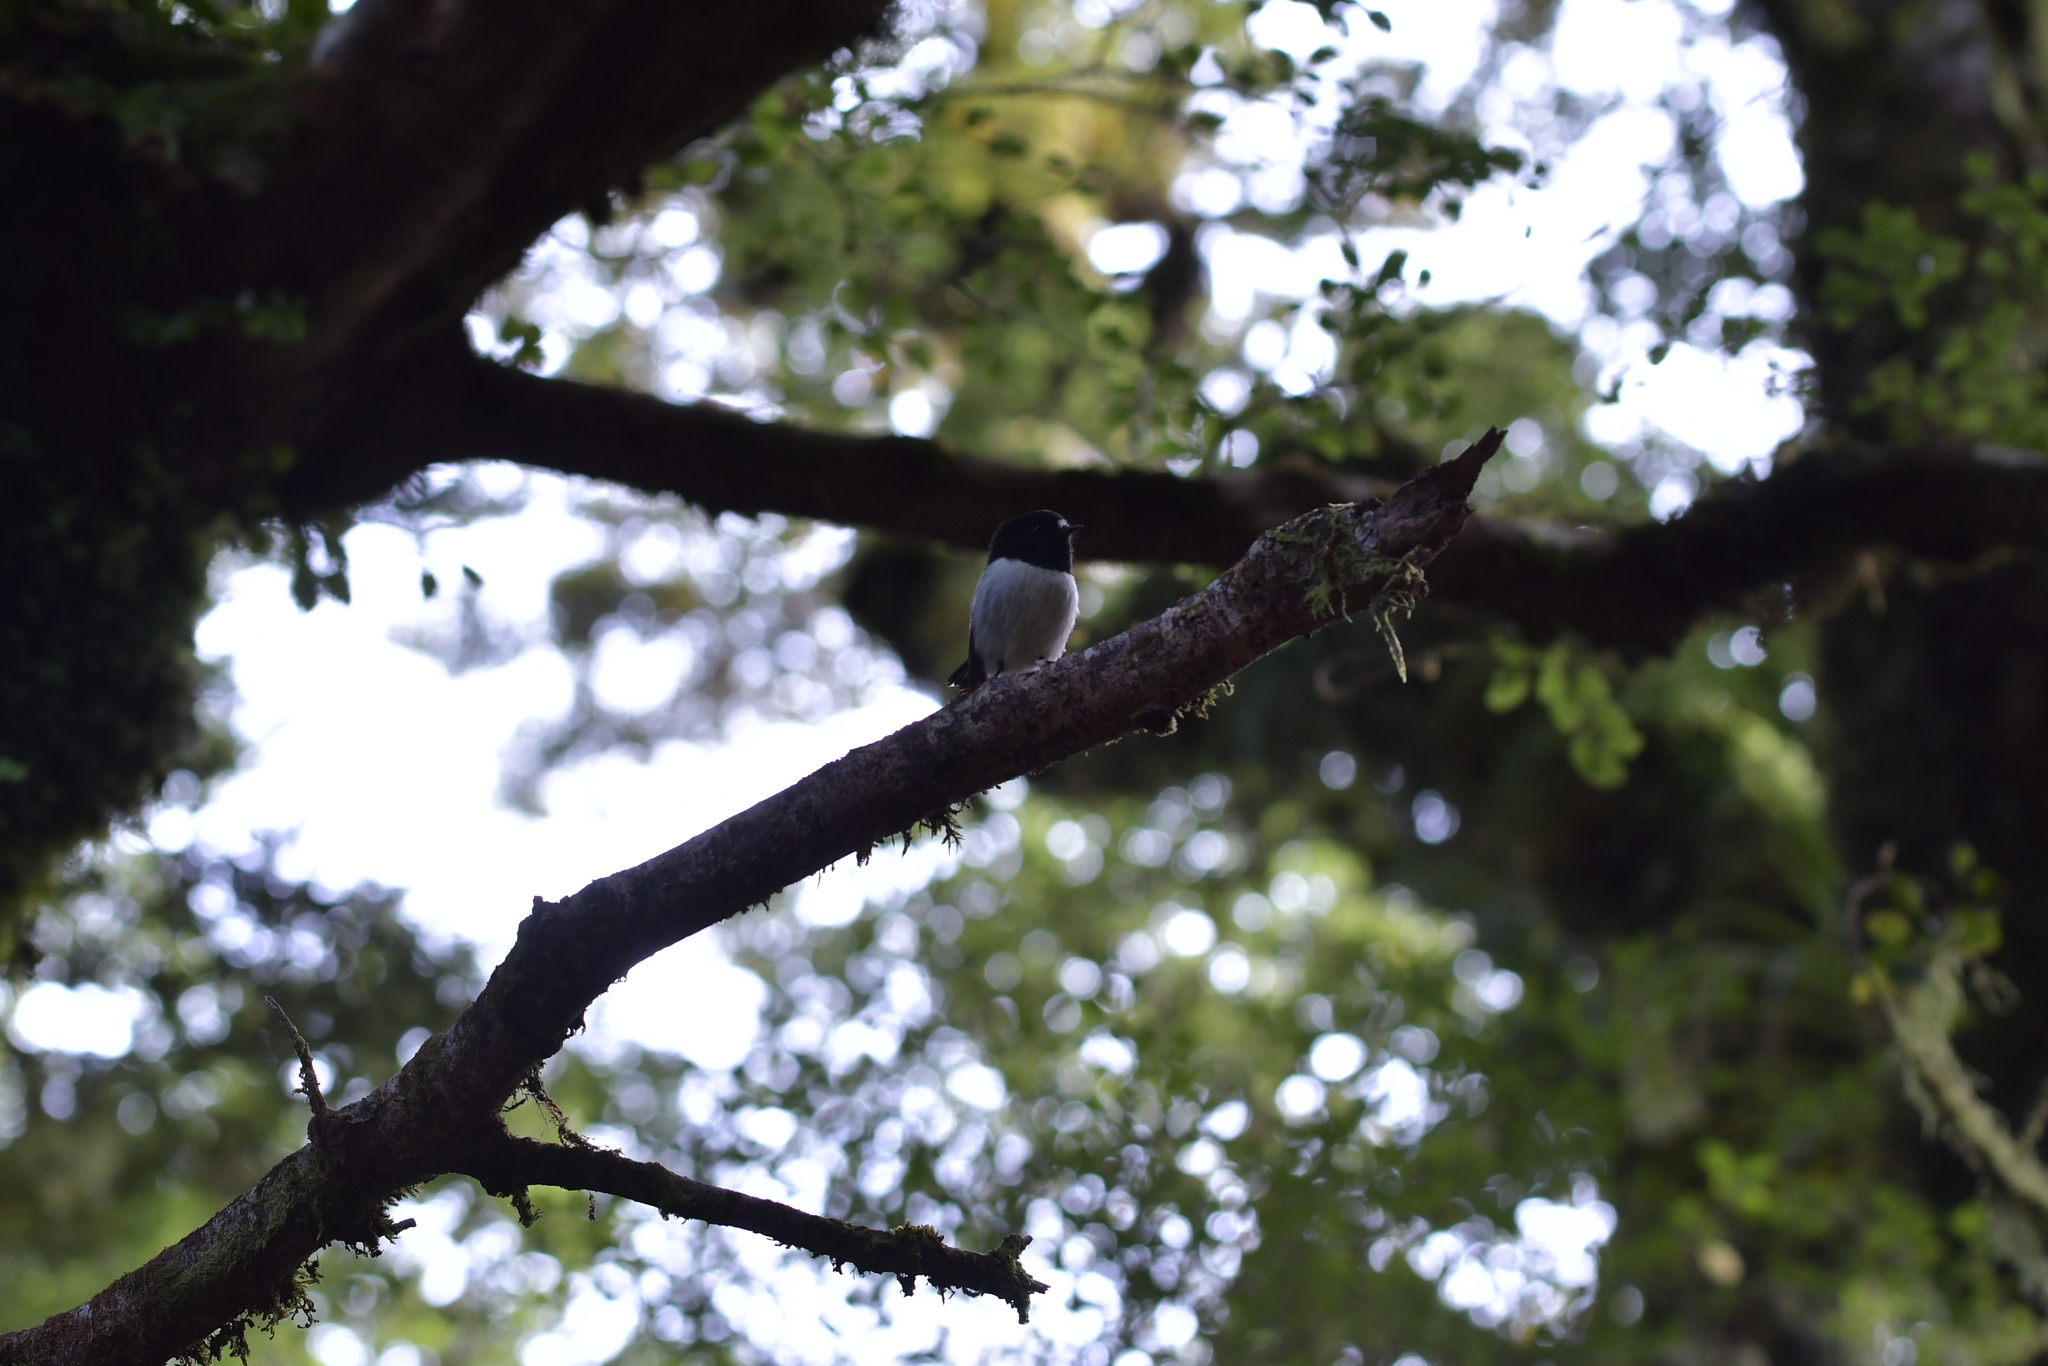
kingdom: Animalia
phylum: Chordata
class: Aves
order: Passeriformes
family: Petroicidae
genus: Petroica
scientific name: Petroica macrocephala
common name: Tomtit
